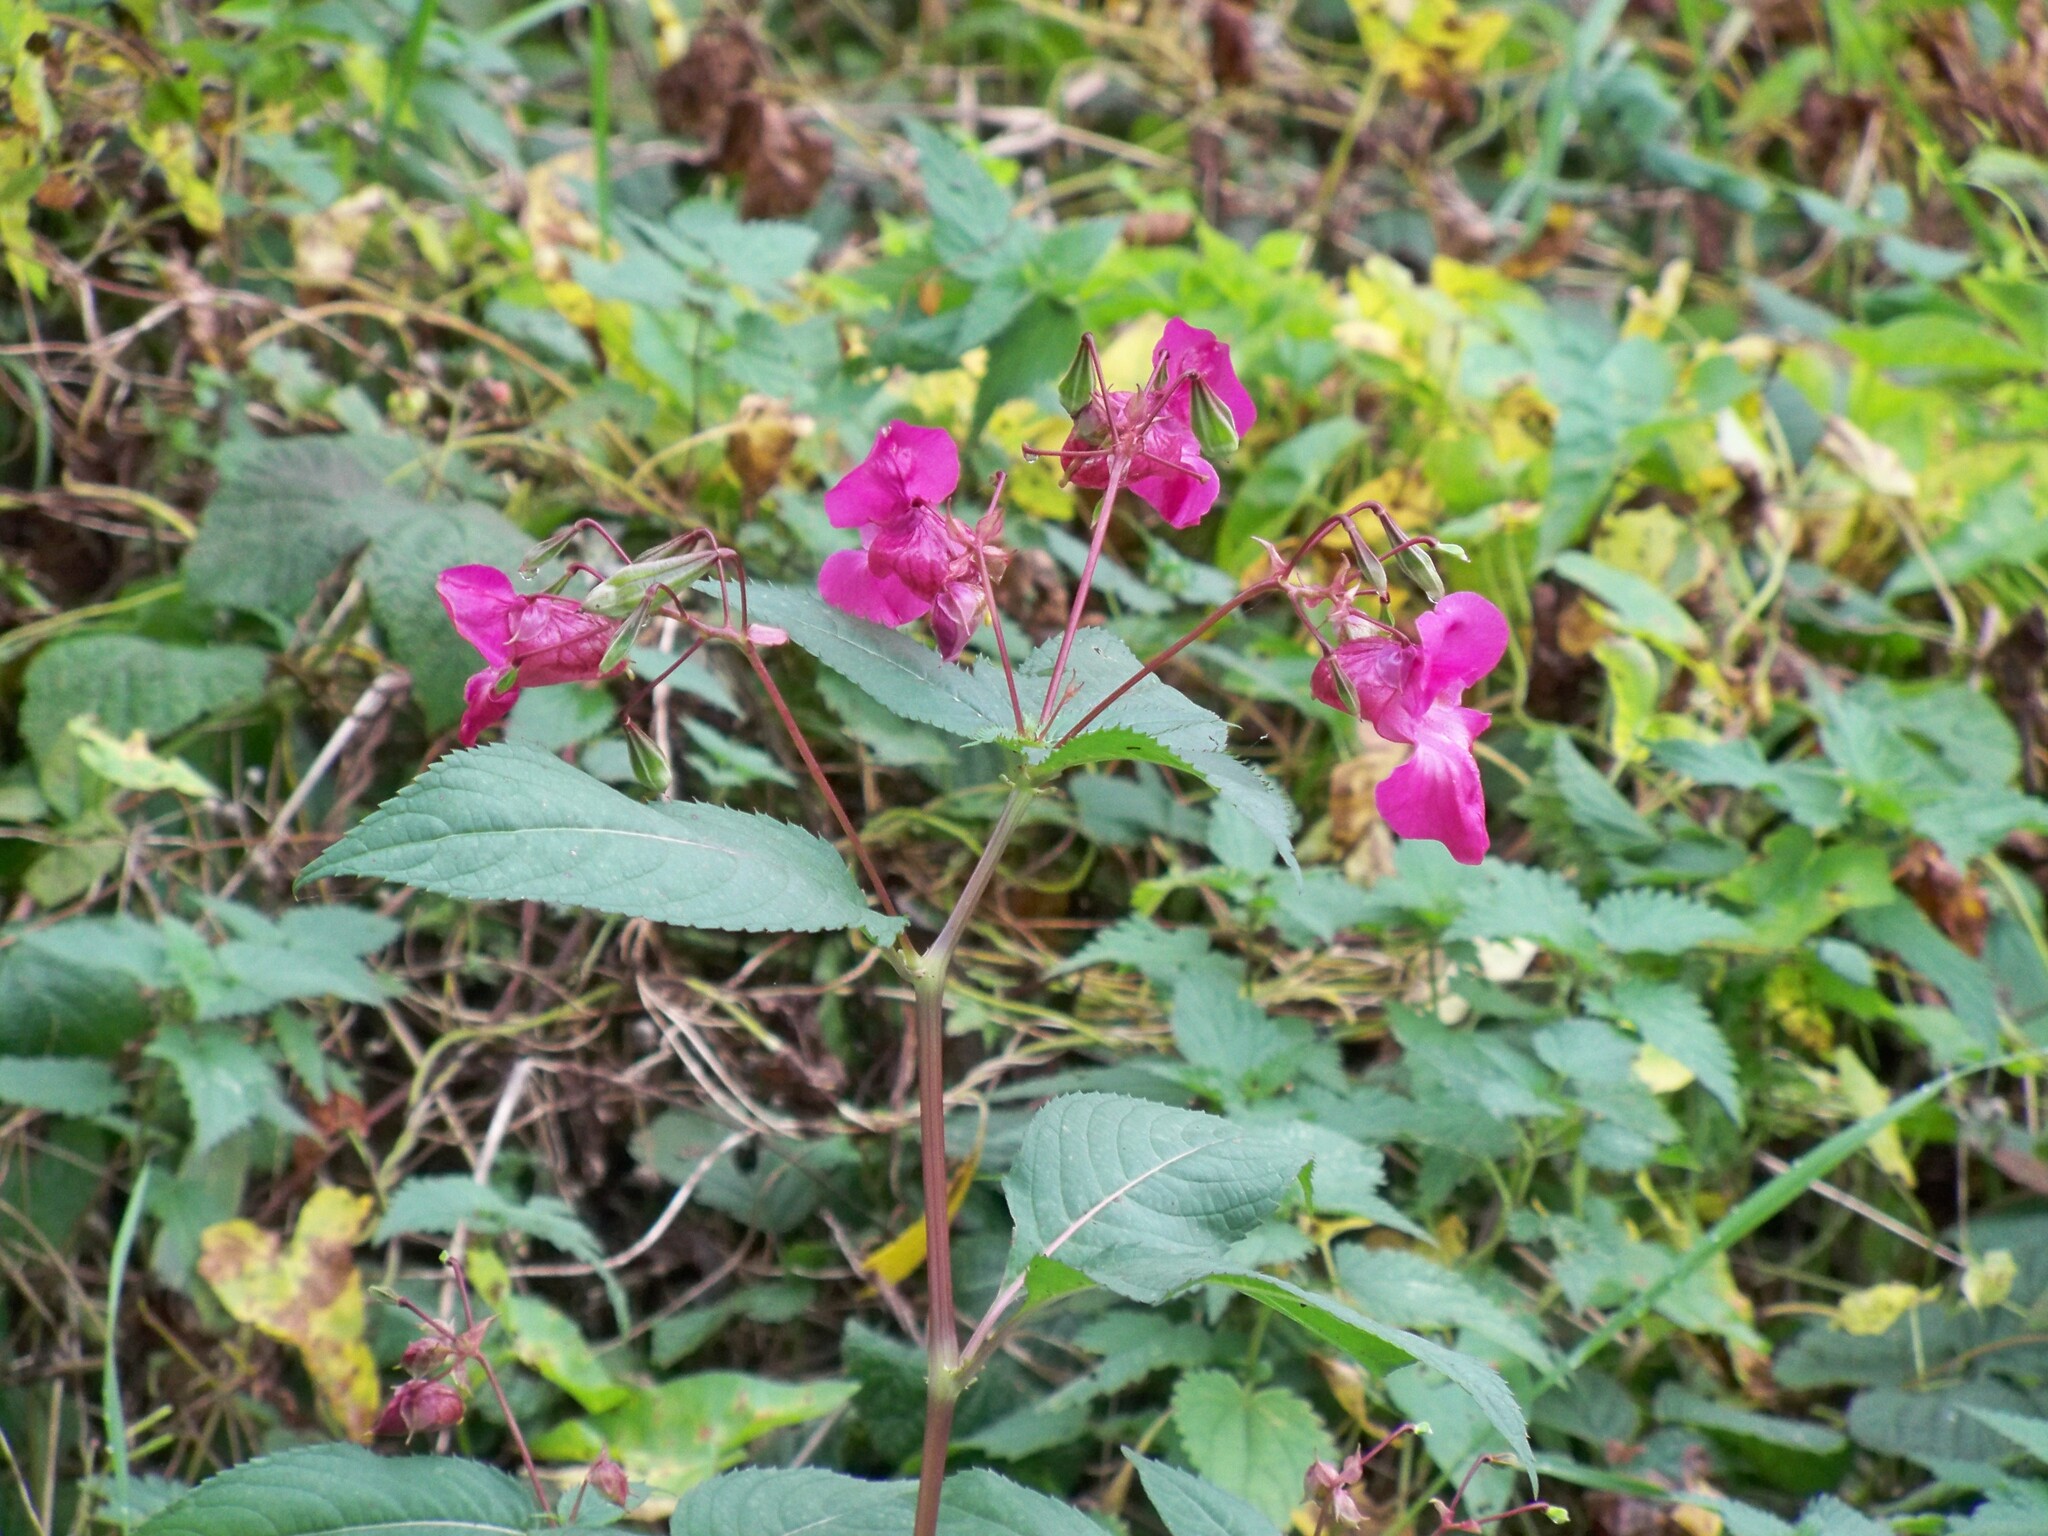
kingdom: Plantae
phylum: Tracheophyta
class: Magnoliopsida
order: Ericales
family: Balsaminaceae
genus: Impatiens
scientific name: Impatiens glandulifera
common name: Himalayan balsam
